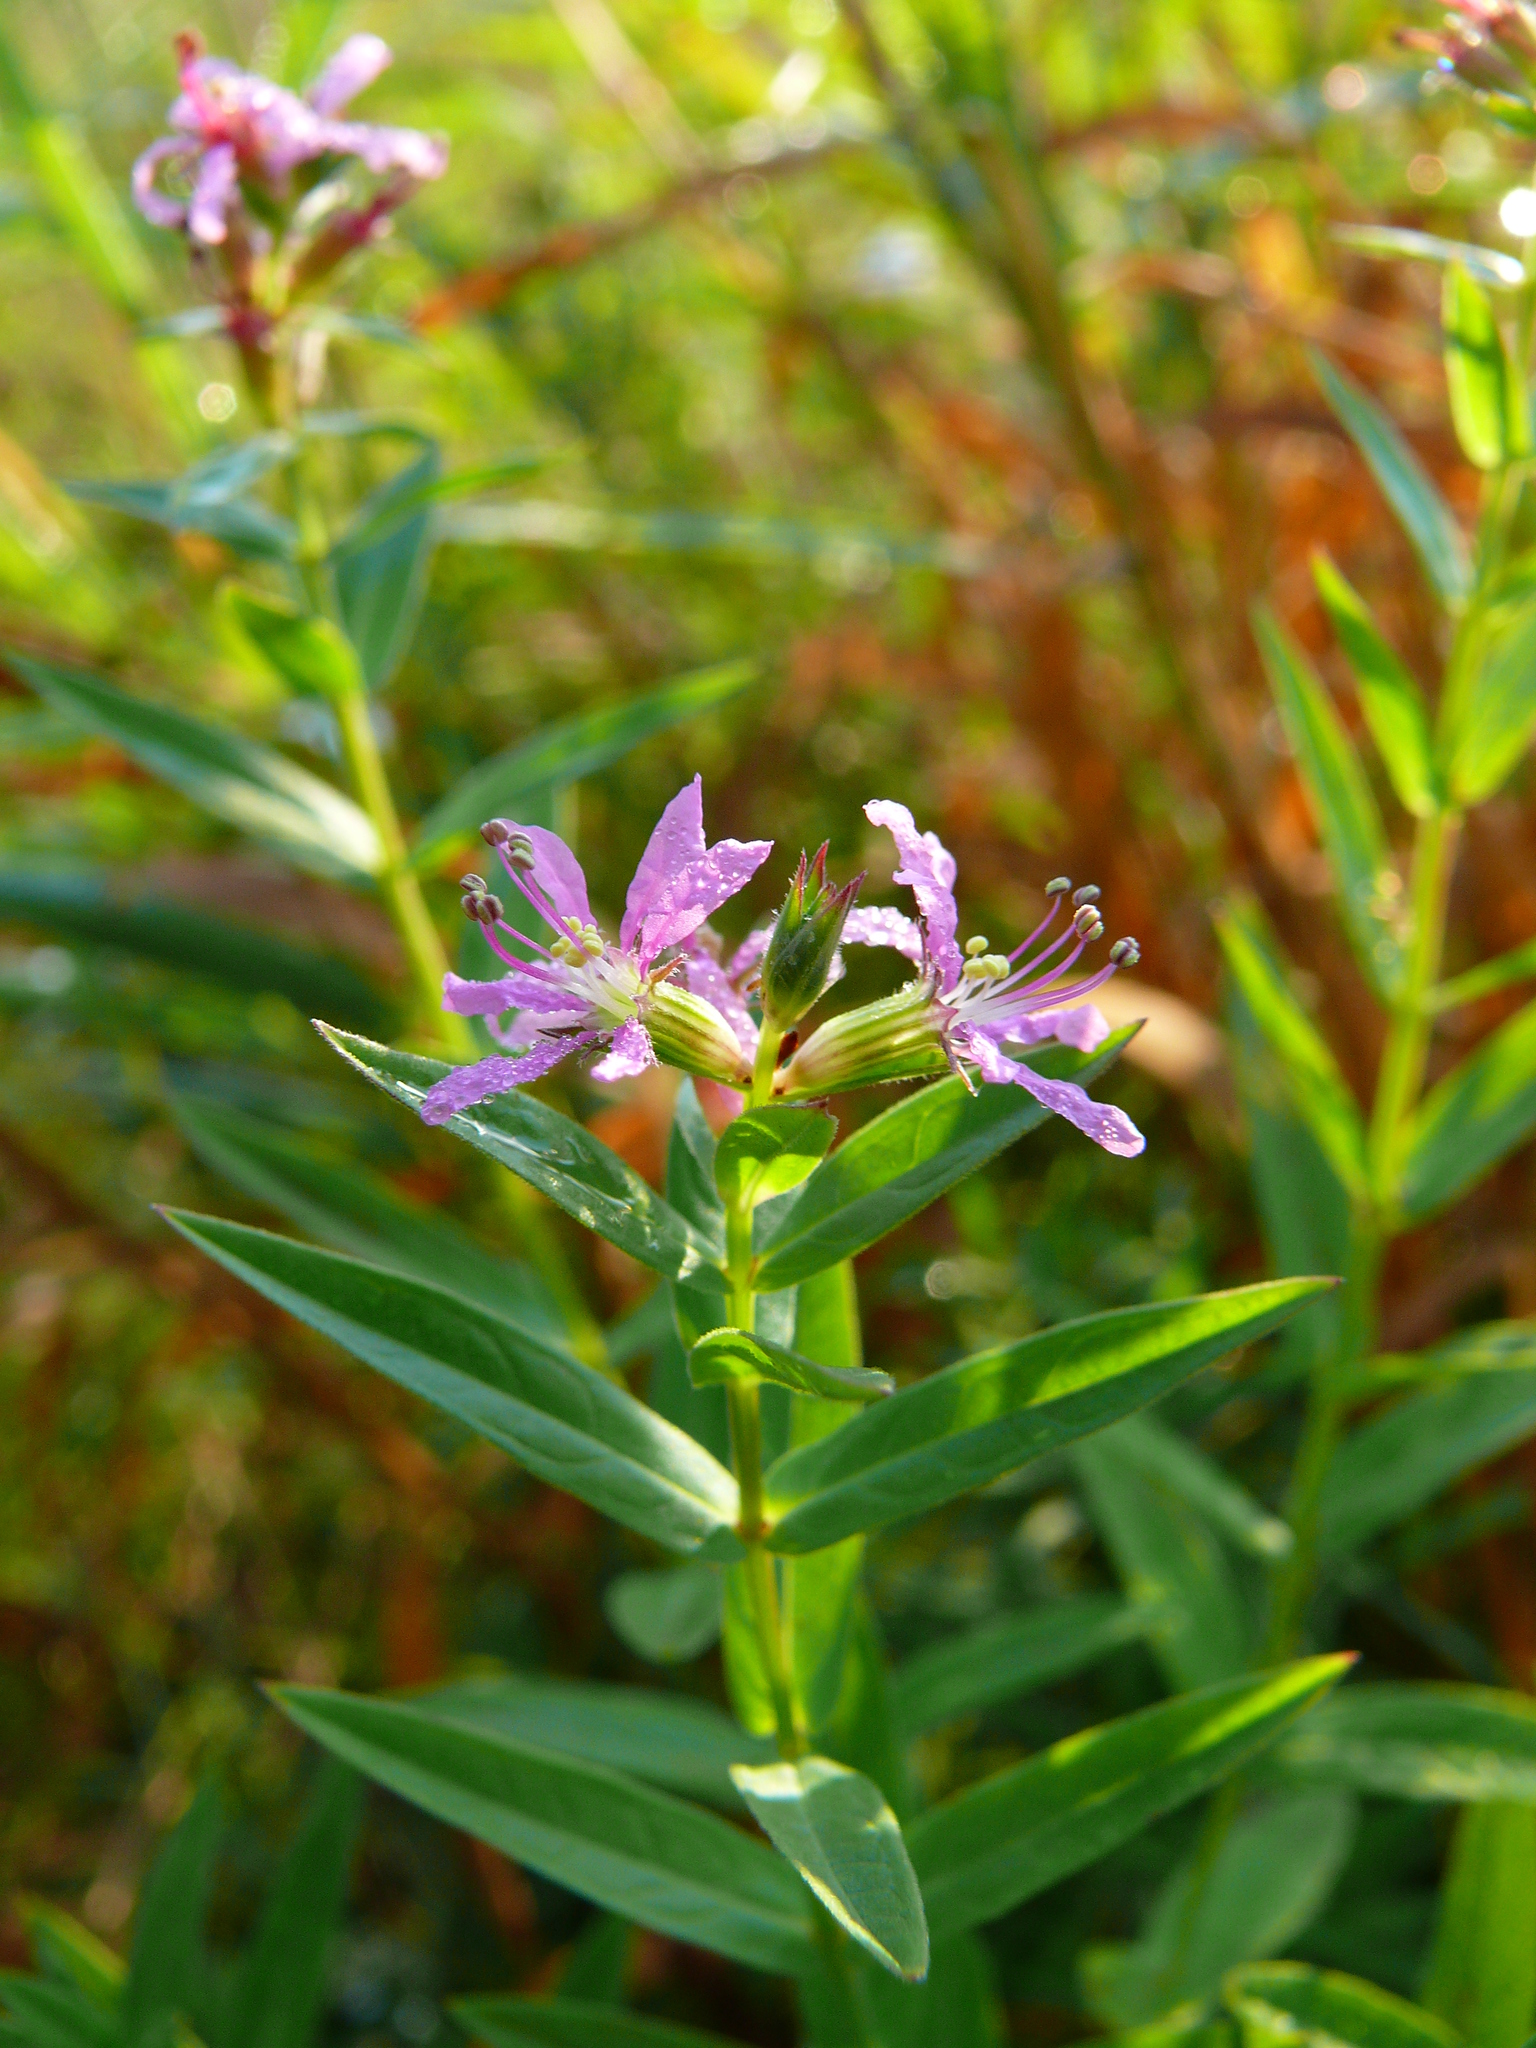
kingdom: Plantae
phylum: Tracheophyta
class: Magnoliopsida
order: Myrtales
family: Lythraceae
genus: Lythrum
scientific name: Lythrum salicaria
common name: Purple loosestrife
